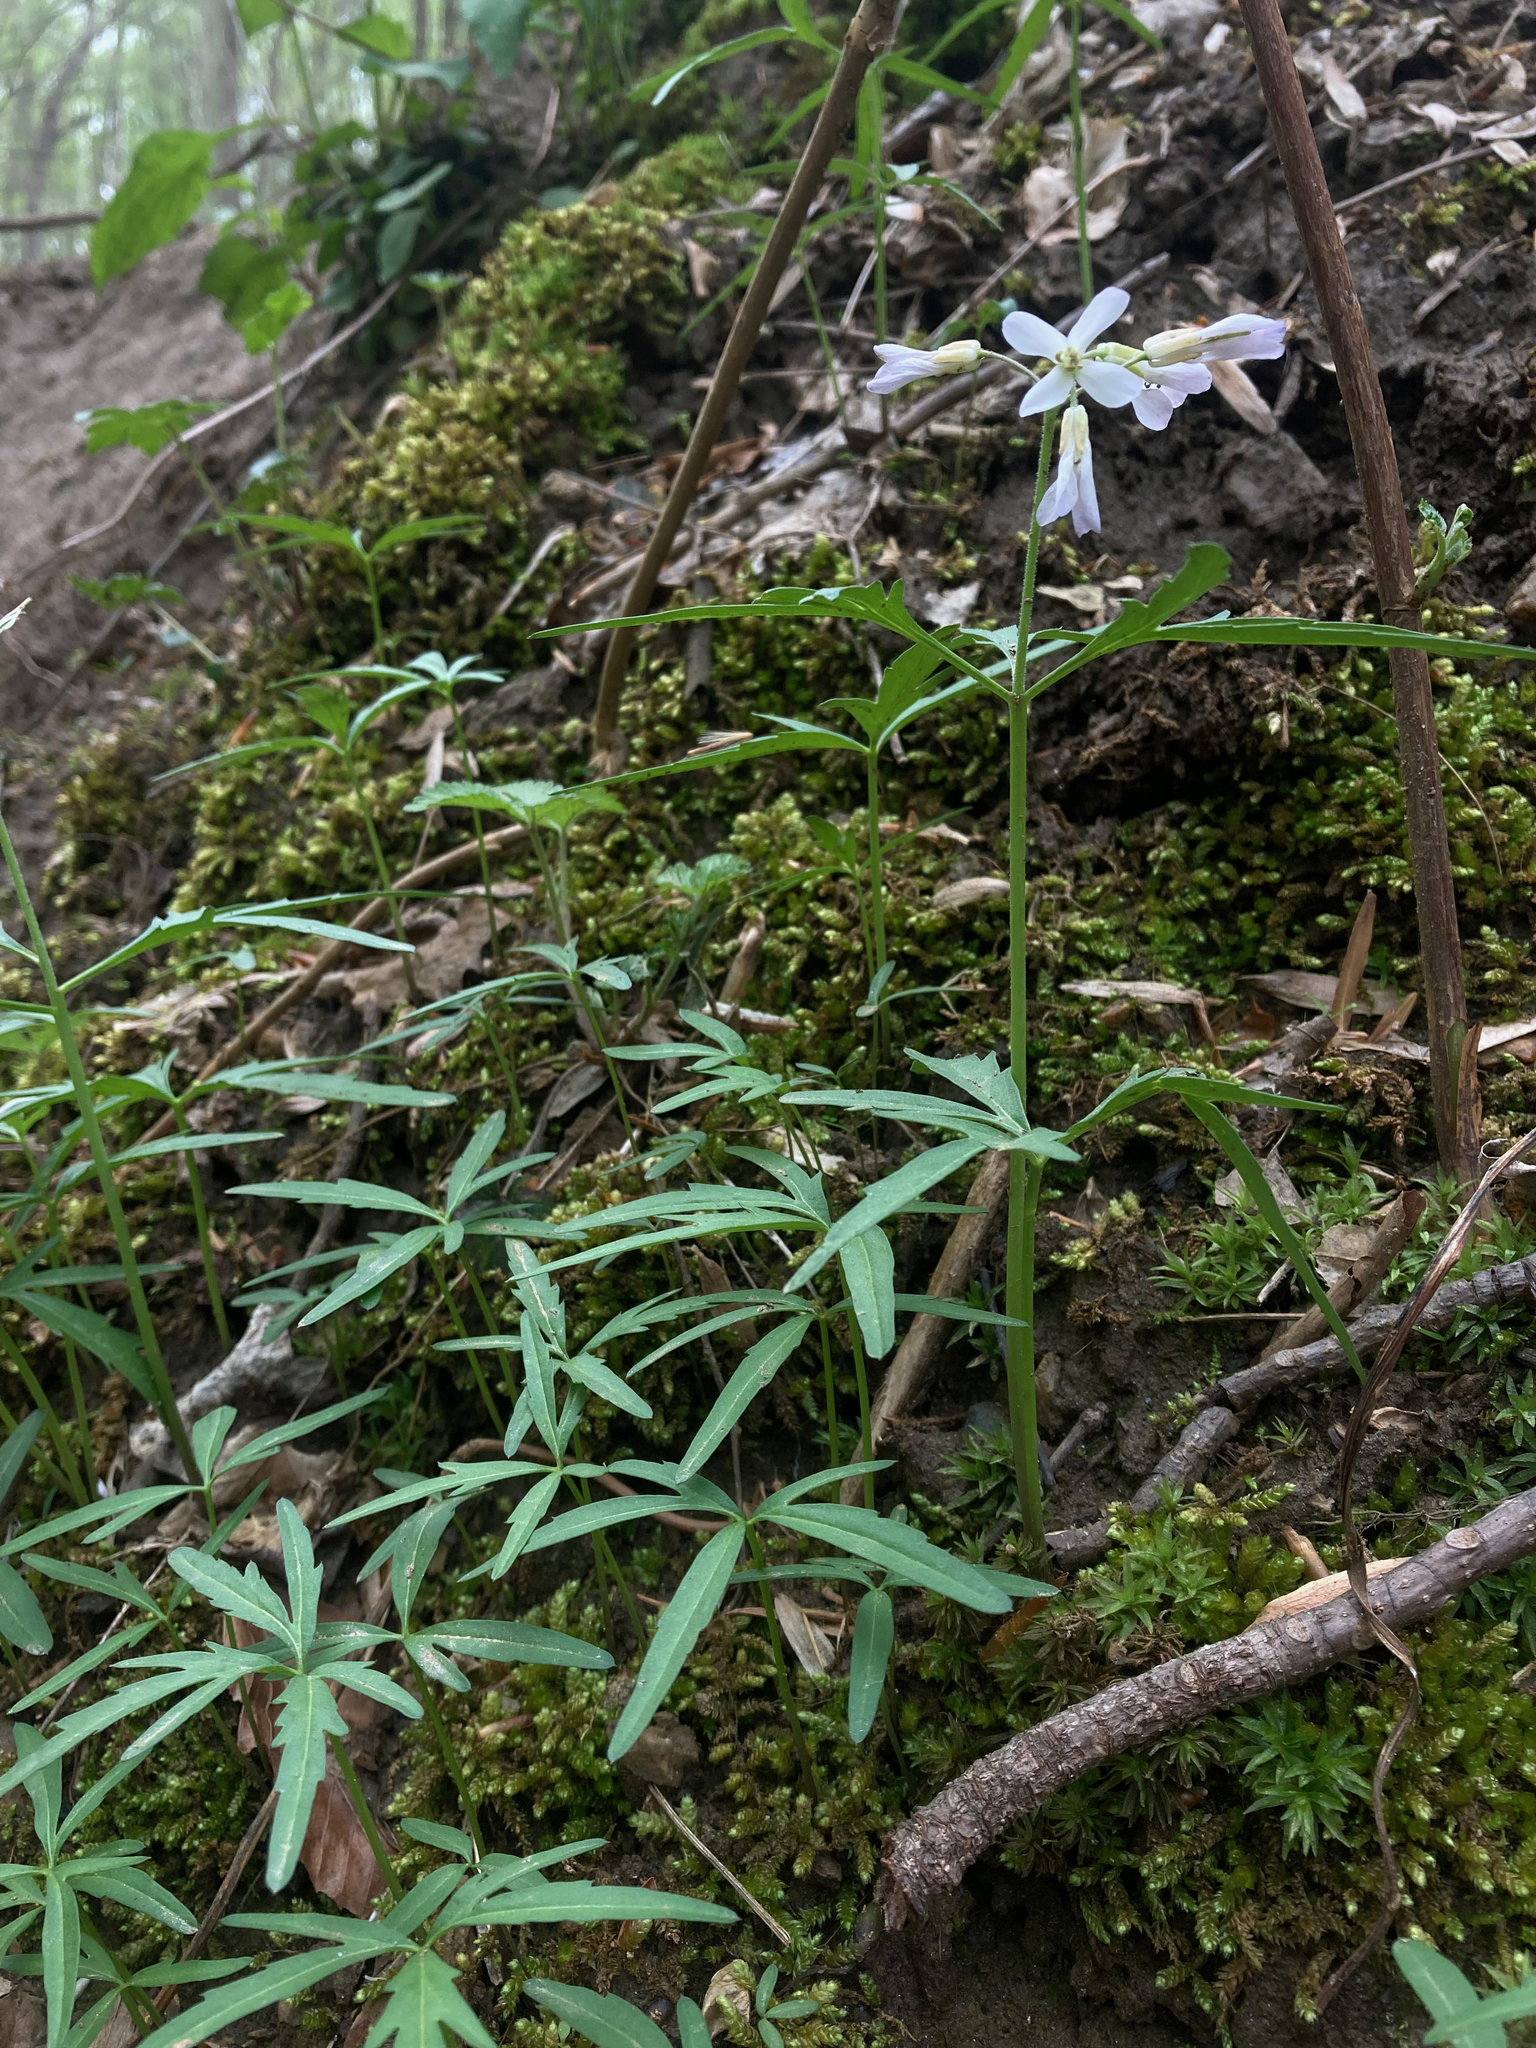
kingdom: Plantae
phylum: Tracheophyta
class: Magnoliopsida
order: Brassicales
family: Brassicaceae
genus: Cardamine
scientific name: Cardamine concatenata
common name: Cut-leaf toothcup
